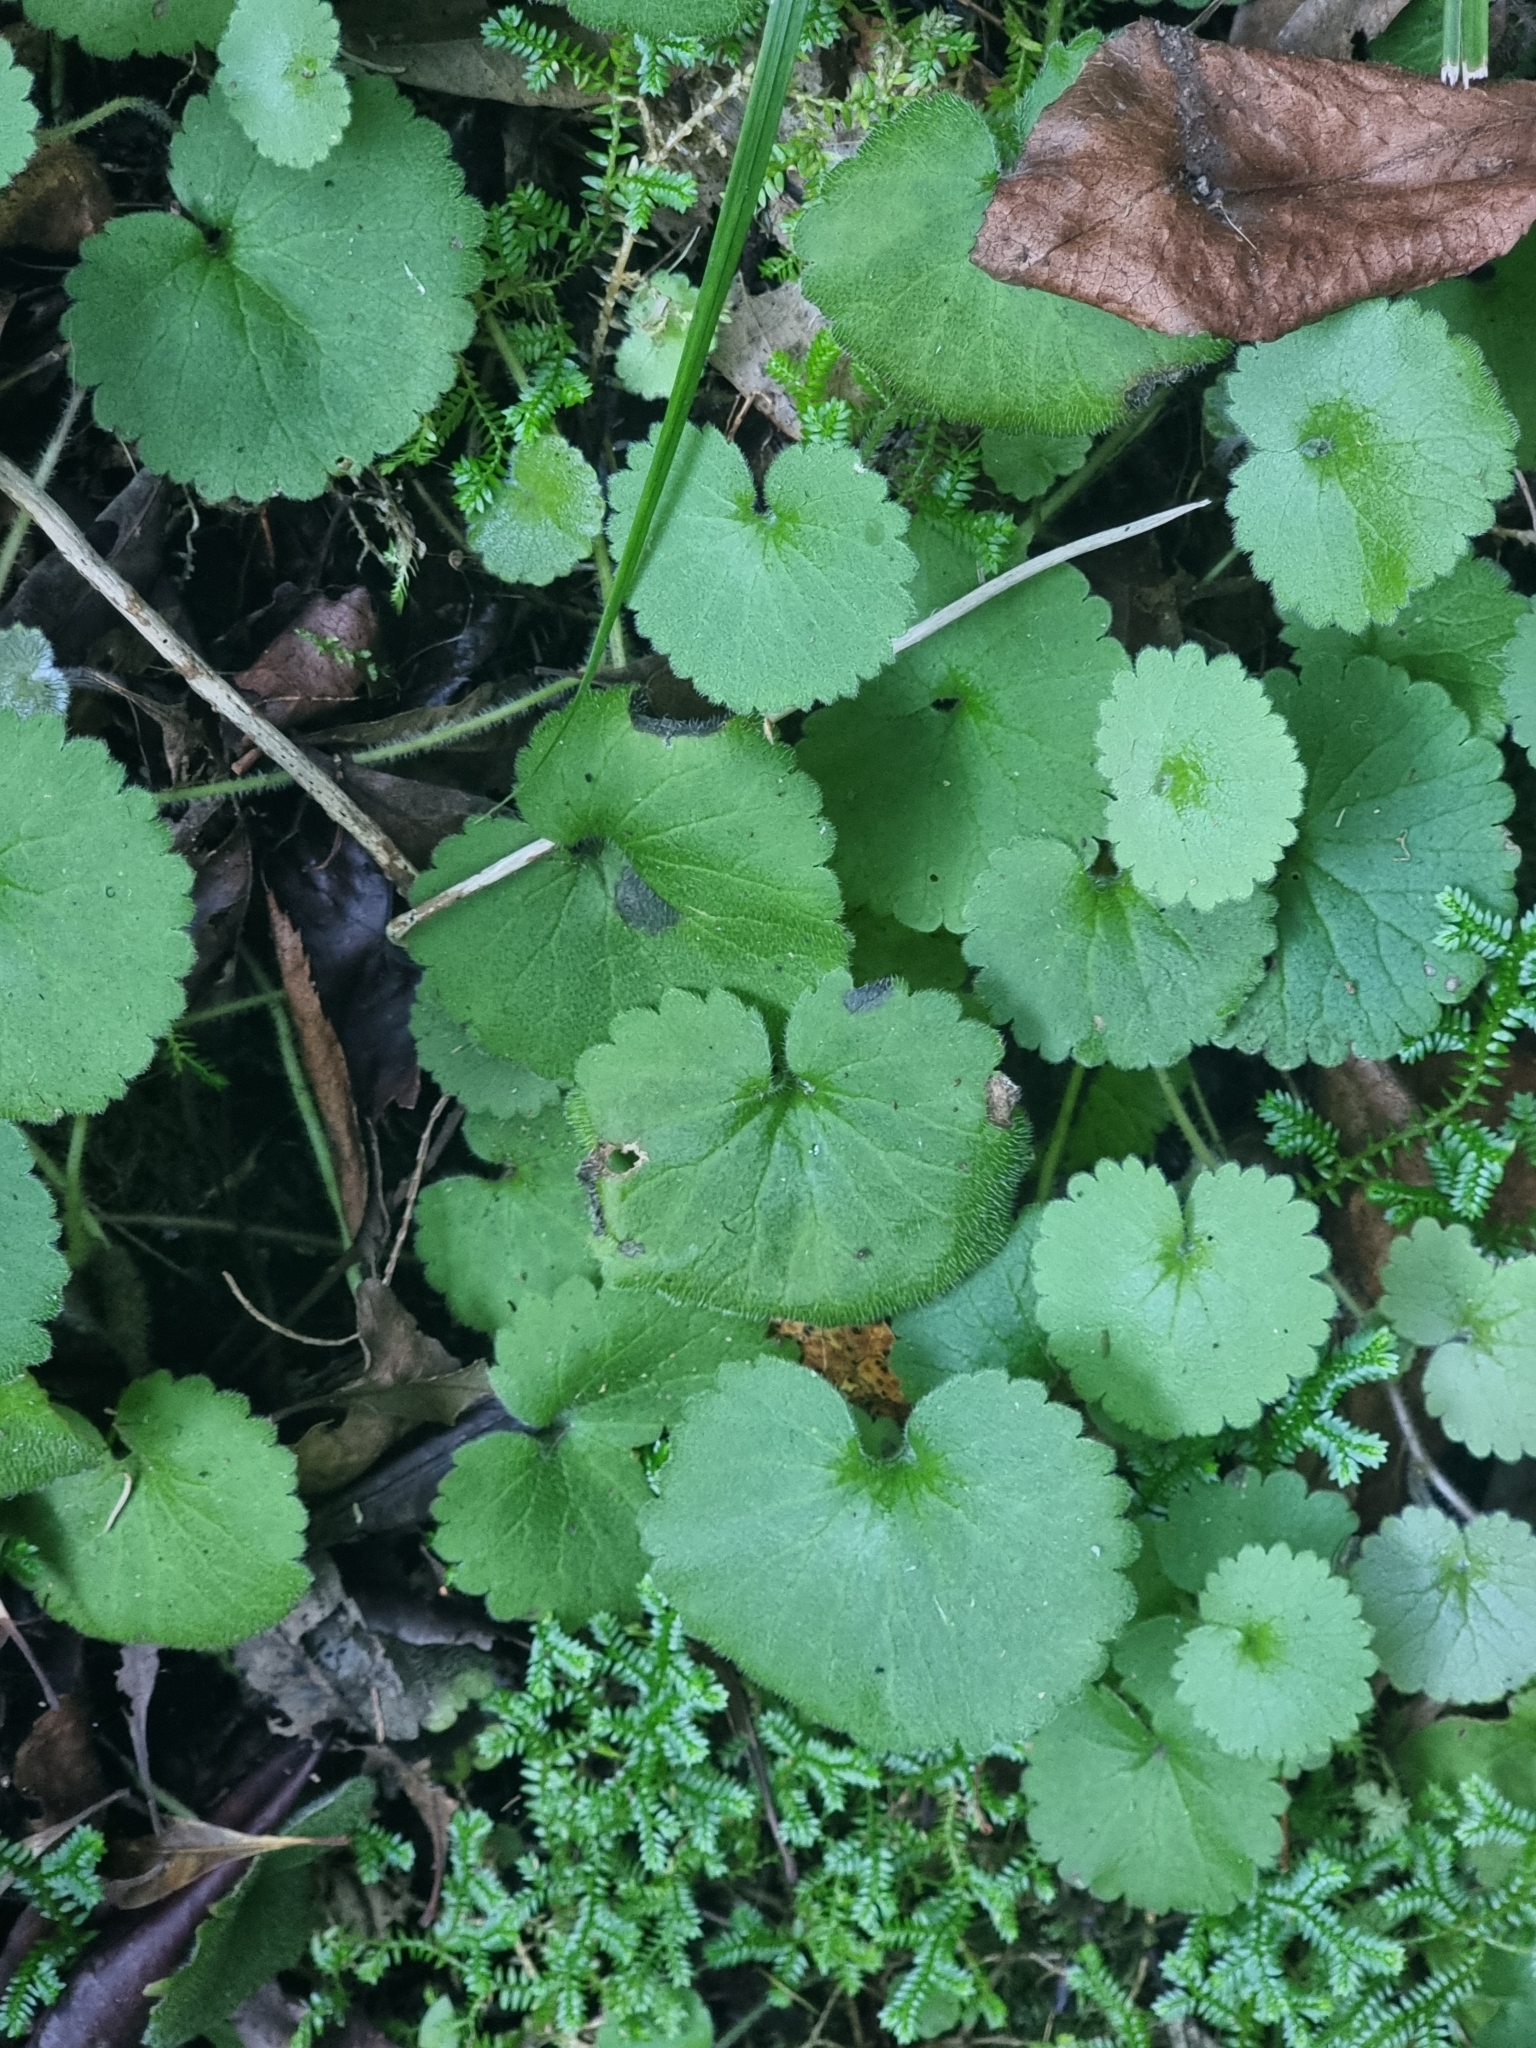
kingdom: Plantae
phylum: Tracheophyta
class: Magnoliopsida
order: Lamiales
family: Plantaginaceae
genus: Sibthorpia
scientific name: Sibthorpia peregrina
